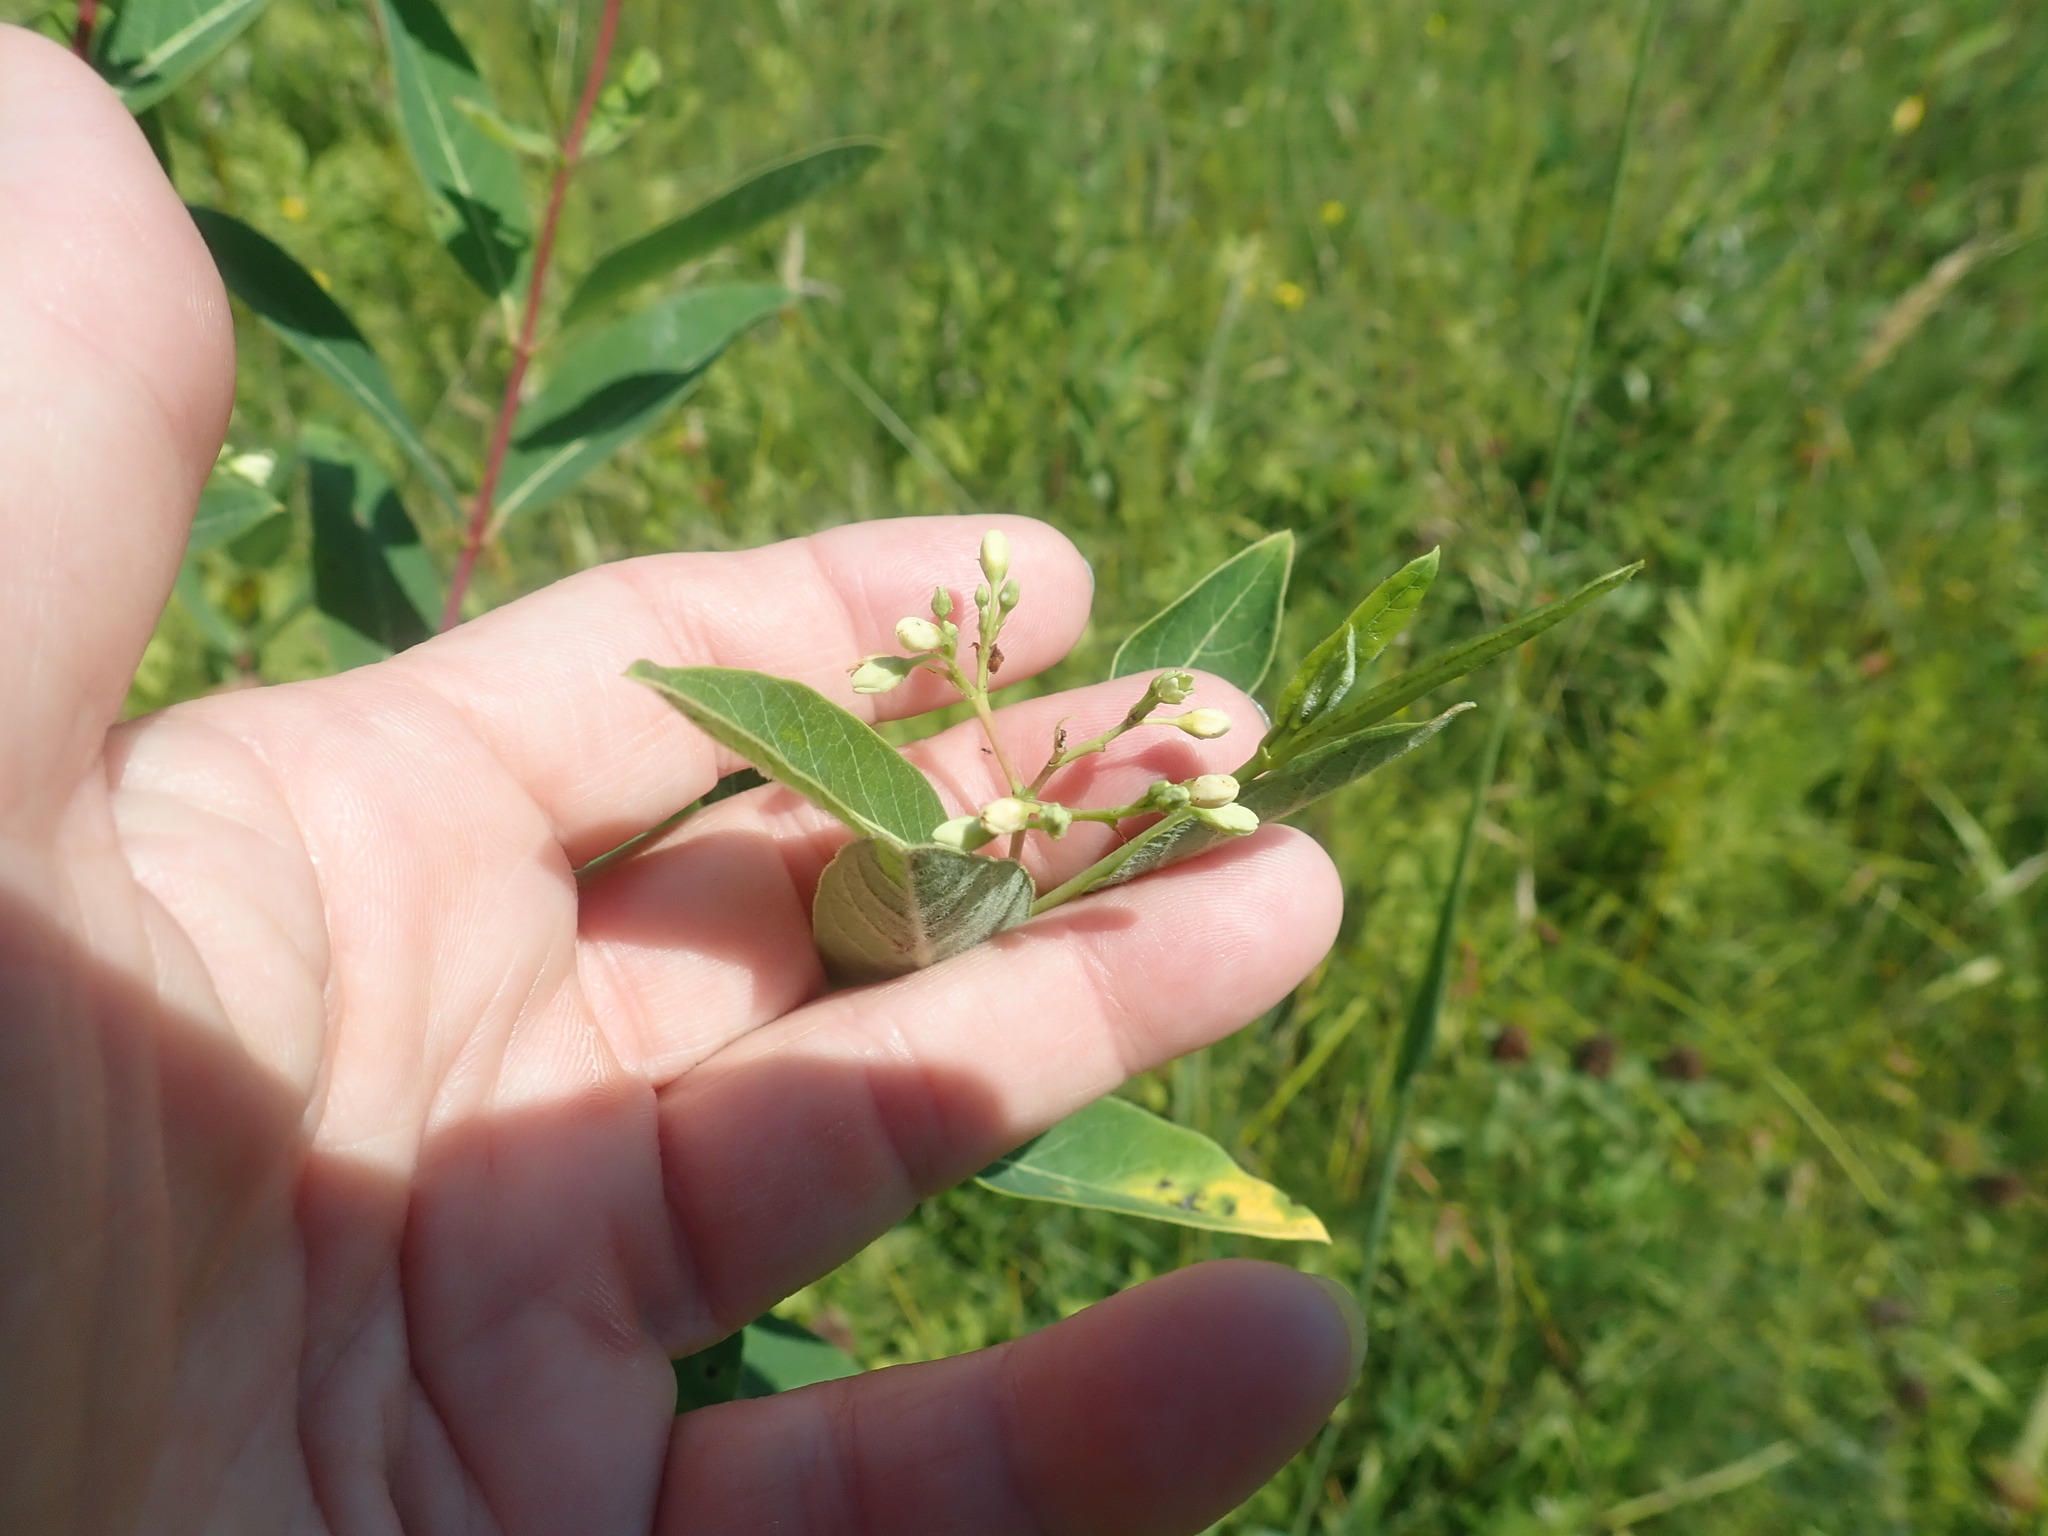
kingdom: Plantae
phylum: Tracheophyta
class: Magnoliopsida
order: Gentianales
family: Apocynaceae
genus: Apocynum
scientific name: Apocynum cannabinum
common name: Hemp dogbane
